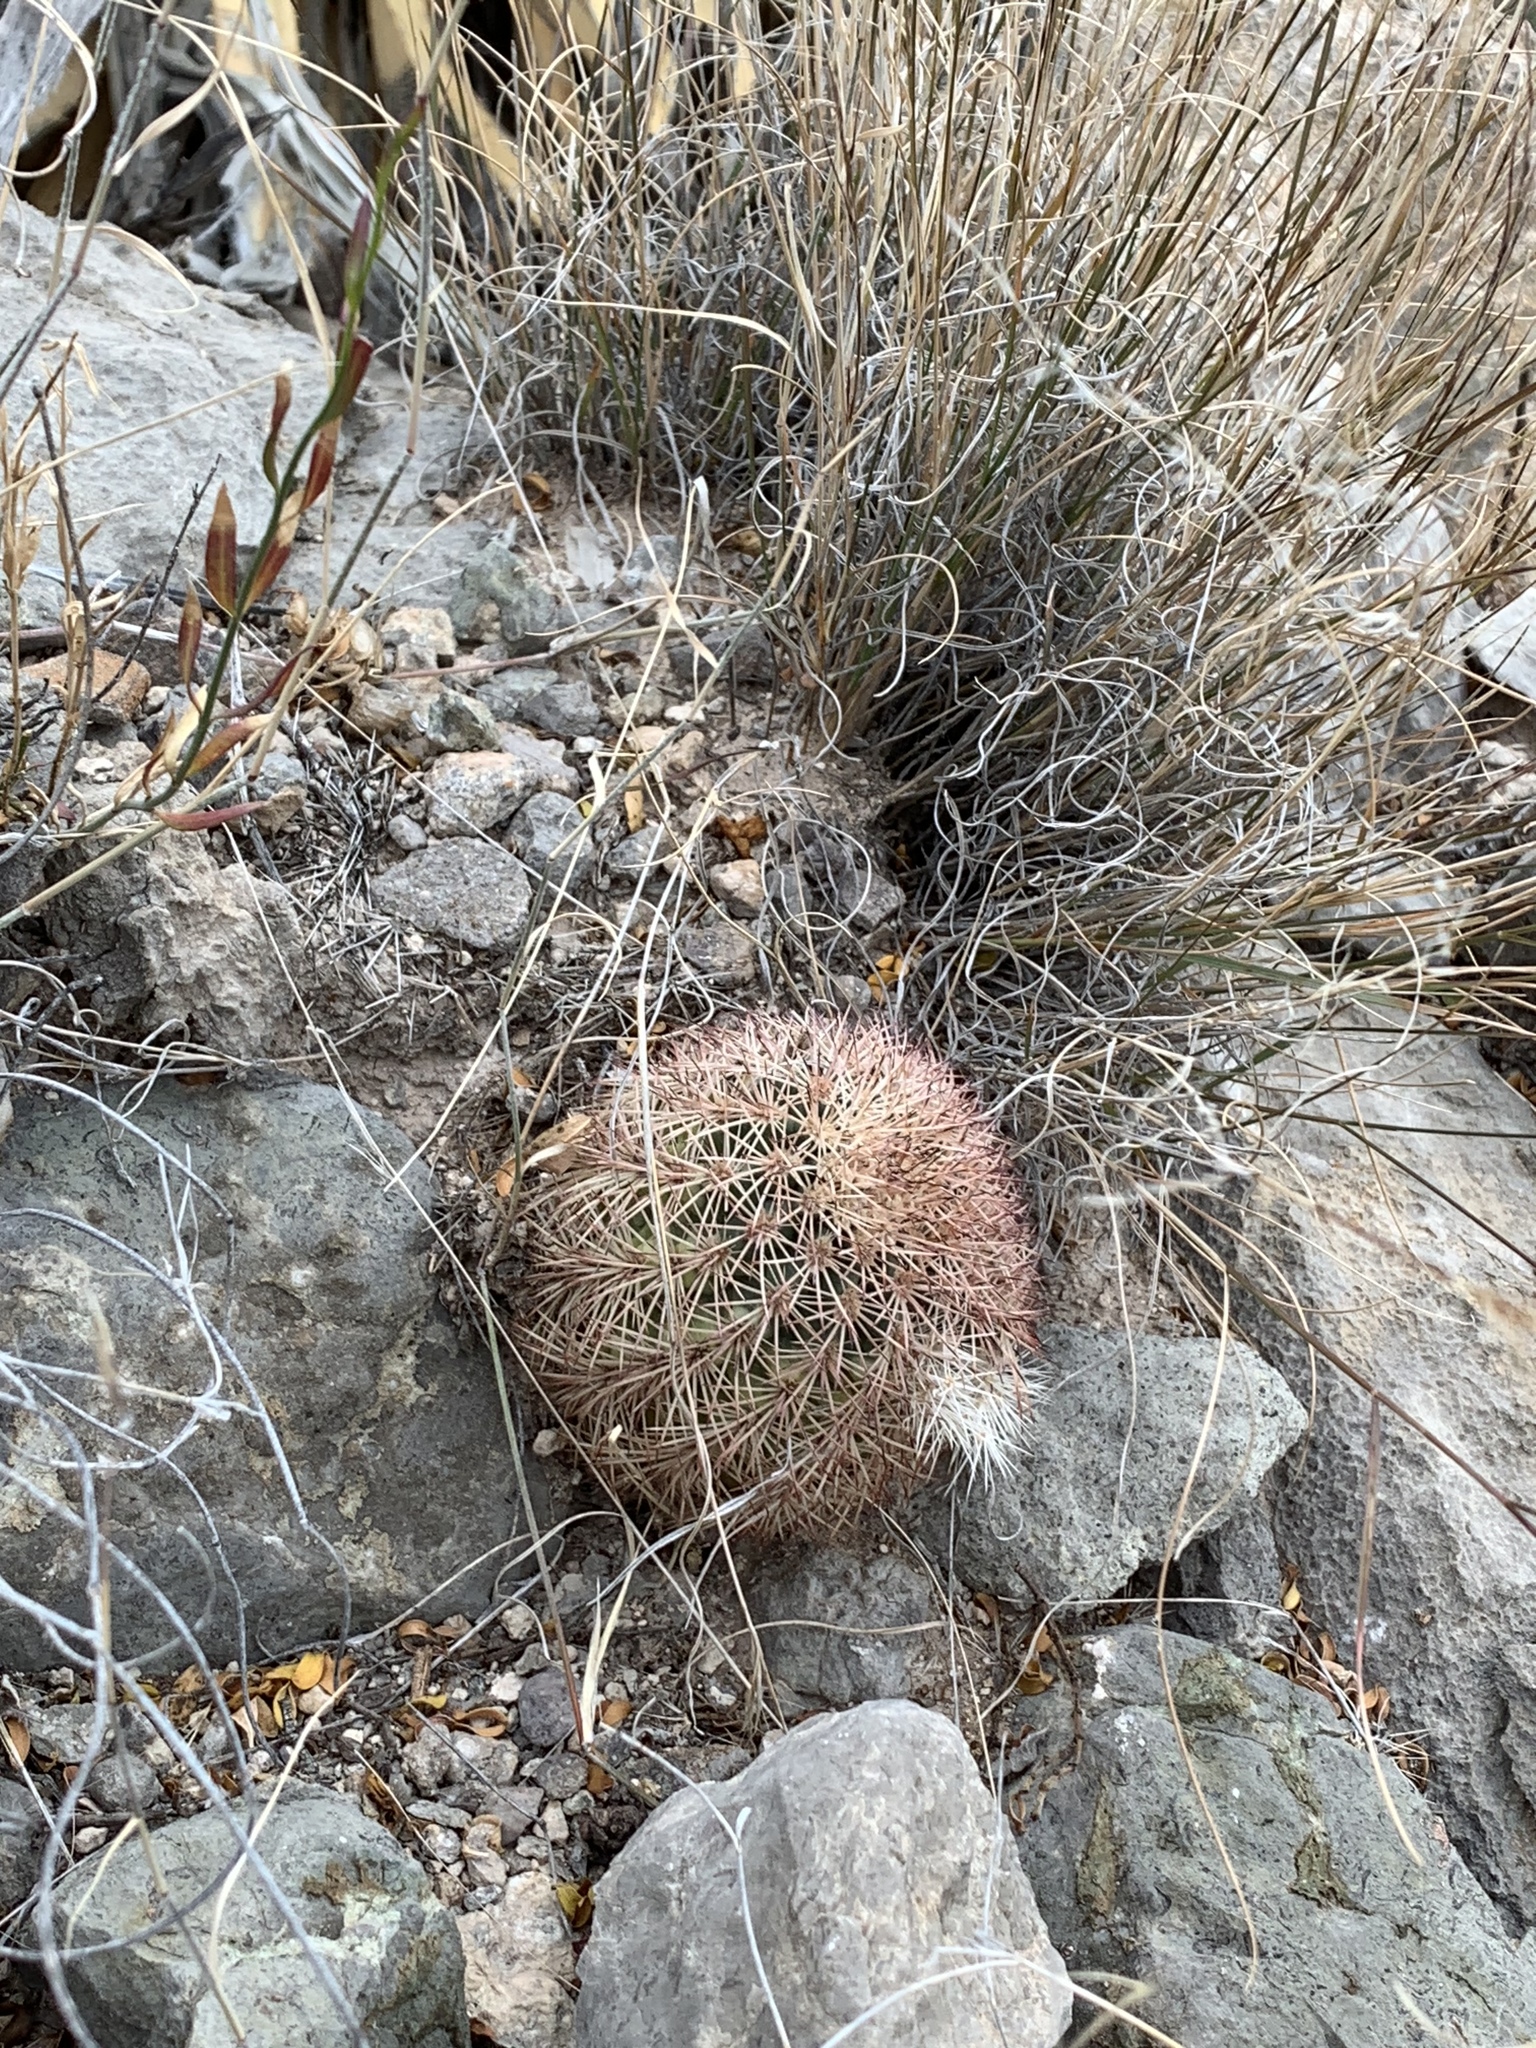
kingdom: Plantae
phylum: Tracheophyta
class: Magnoliopsida
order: Caryophyllales
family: Cactaceae
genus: Echinocereus
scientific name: Echinocereus dasyacanthus
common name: Spiny hedgehog cactus
